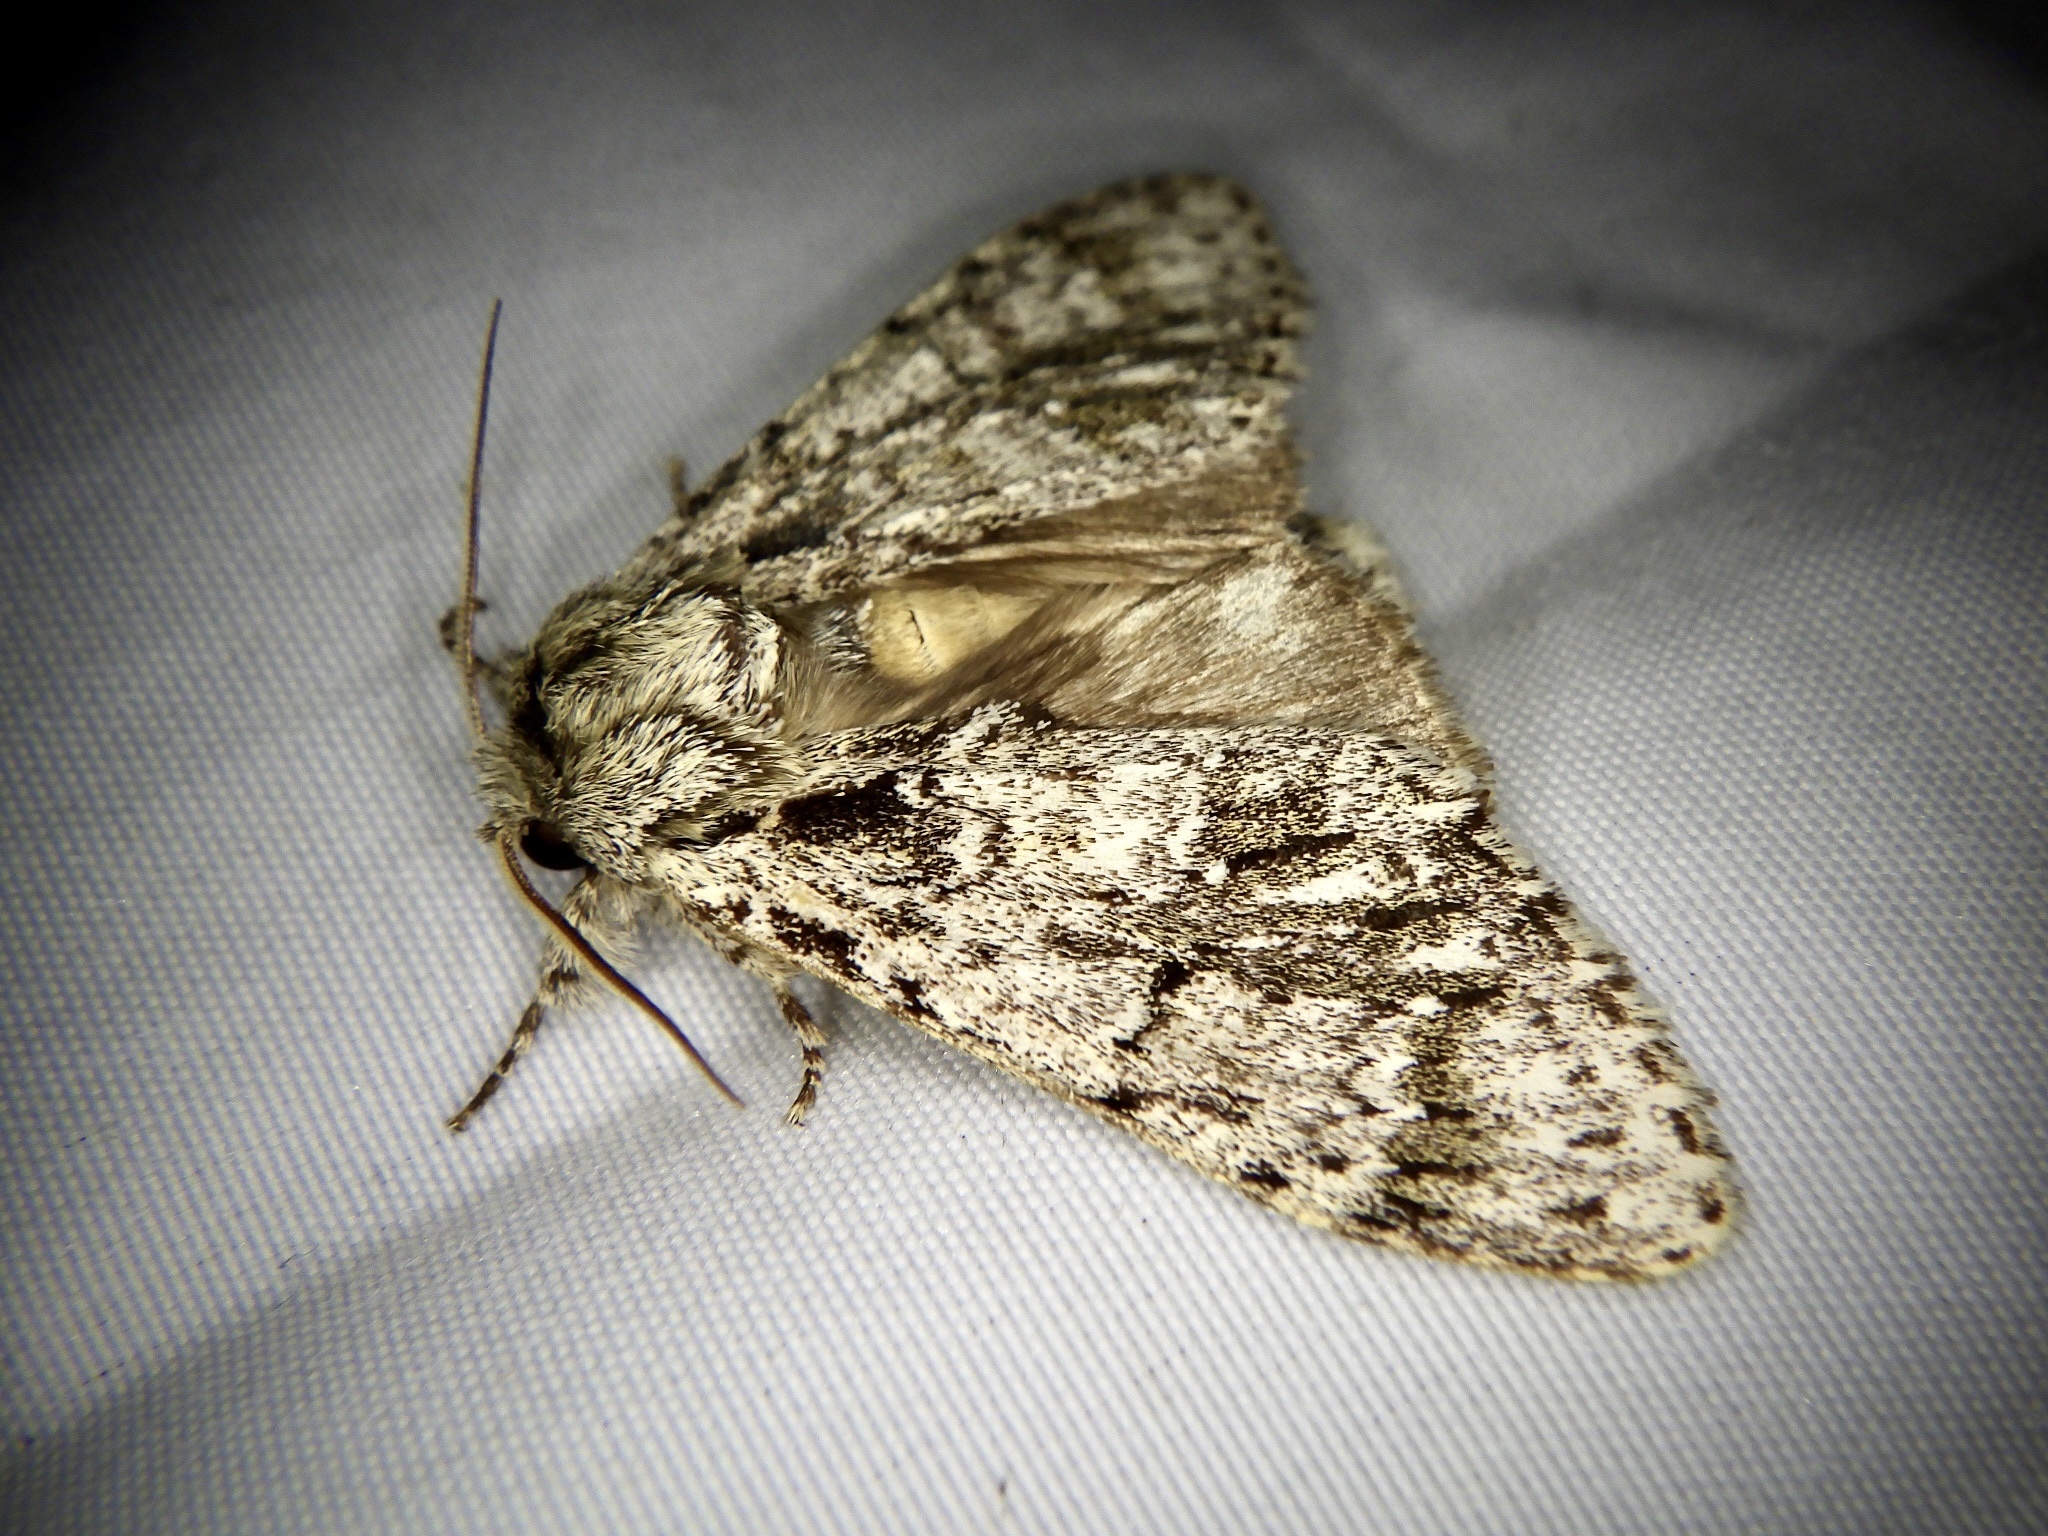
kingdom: Animalia
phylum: Arthropoda
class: Insecta
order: Lepidoptera
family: Notodontidae
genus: Pheosiopsis
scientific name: Pheosiopsis cinerea
